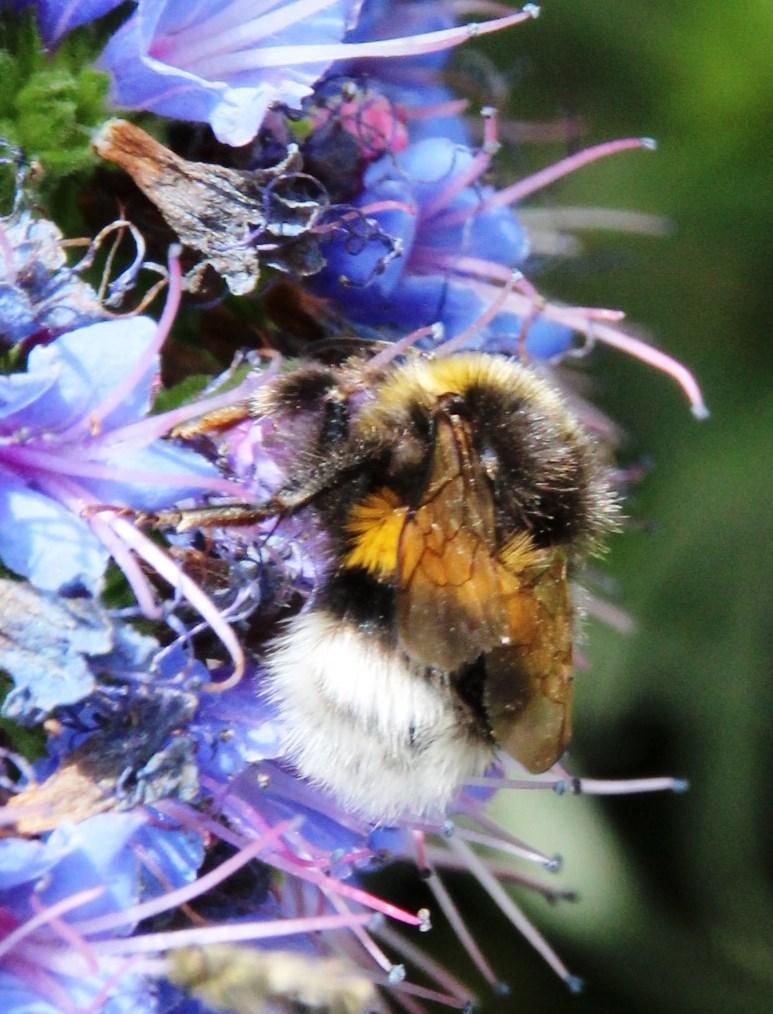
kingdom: Animalia
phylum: Arthropoda
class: Insecta
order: Hymenoptera
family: Apidae
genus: Bombus
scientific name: Bombus terrestris
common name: Buff-tailed bumblebee
